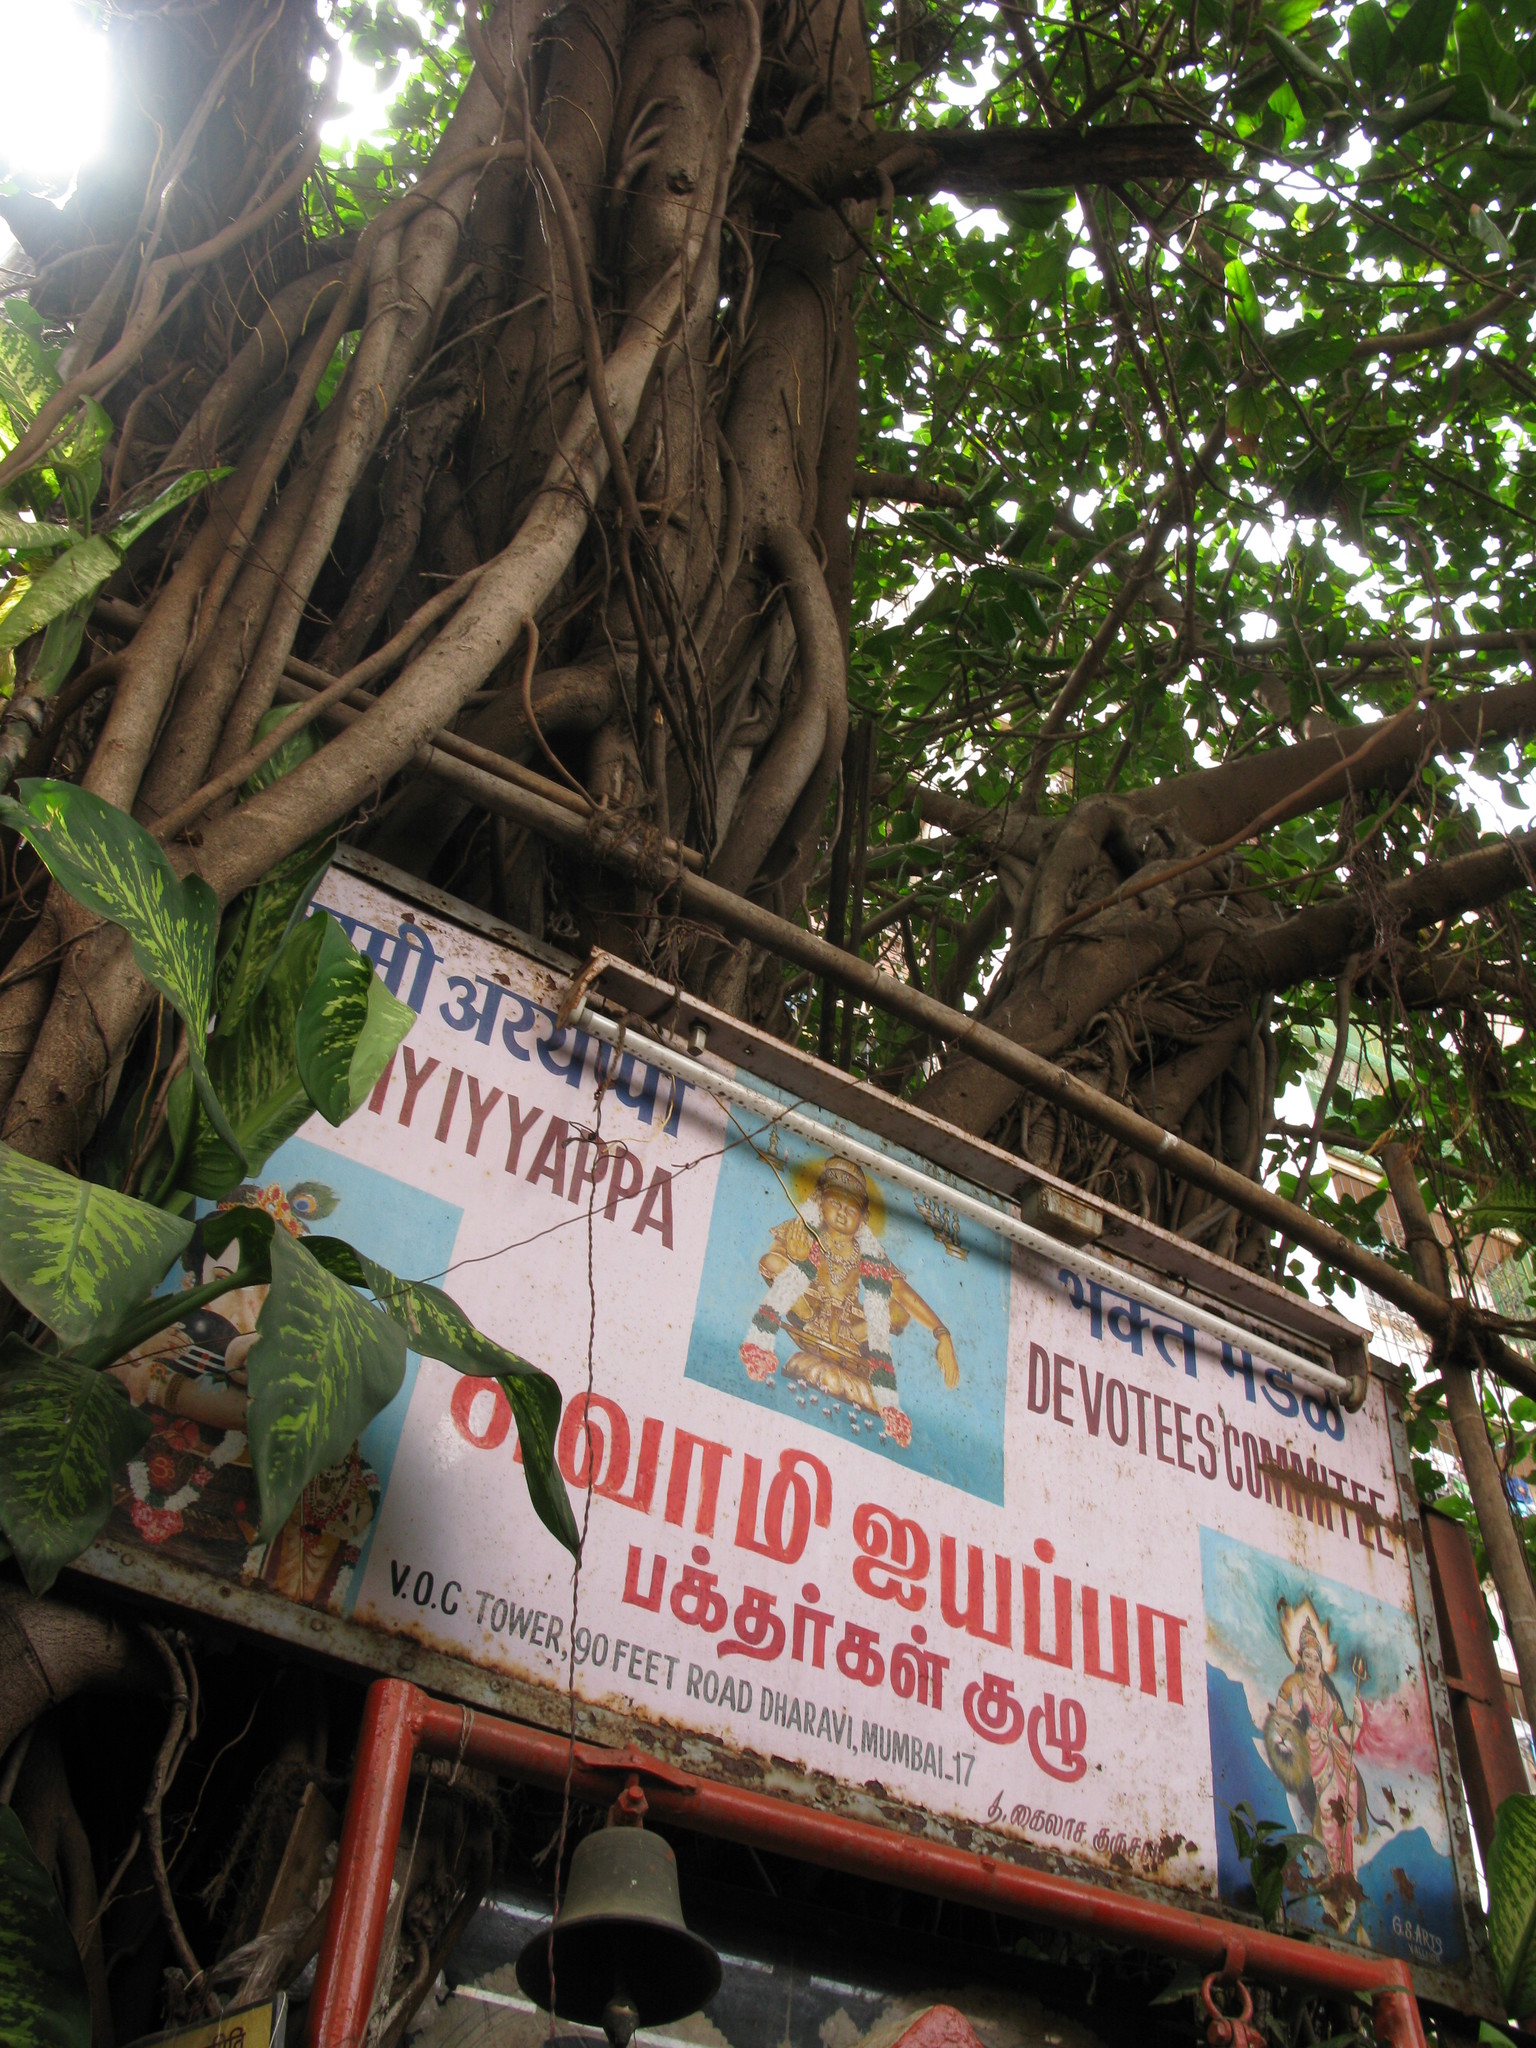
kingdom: Plantae
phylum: Tracheophyta
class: Magnoliopsida
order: Rosales
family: Moraceae
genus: Ficus
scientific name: Ficus benghalensis
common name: Indian banyan
